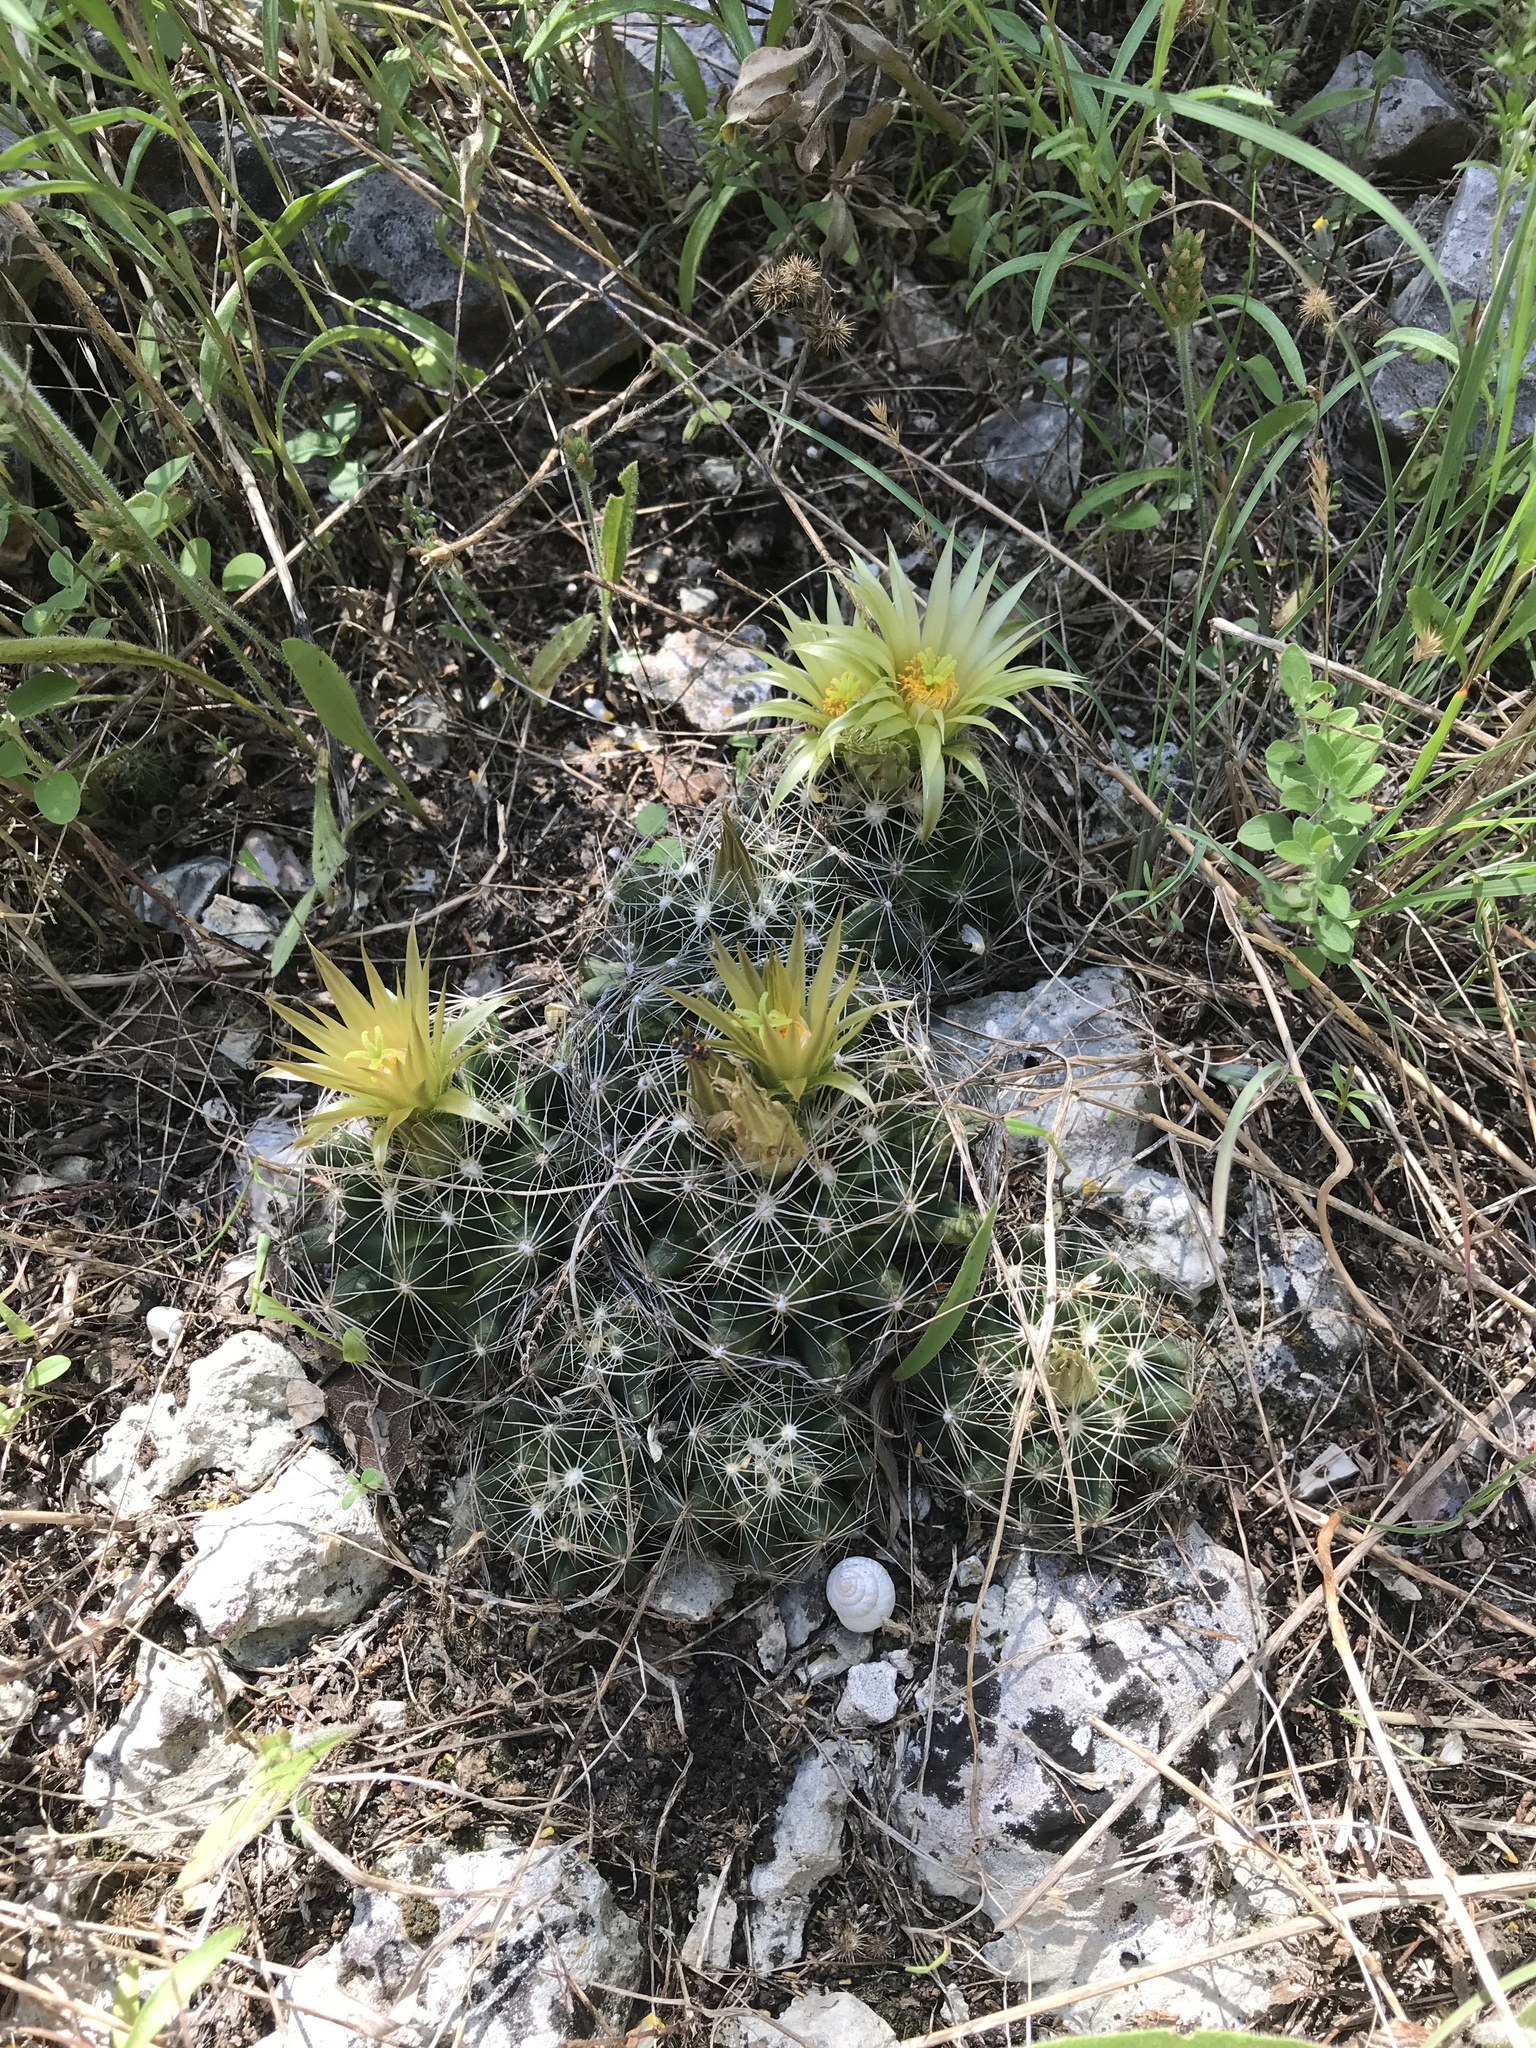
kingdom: Plantae
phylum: Tracheophyta
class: Magnoliopsida
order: Caryophyllales
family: Cactaceae
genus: Pelecyphora
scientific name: Pelecyphora missouriensis
